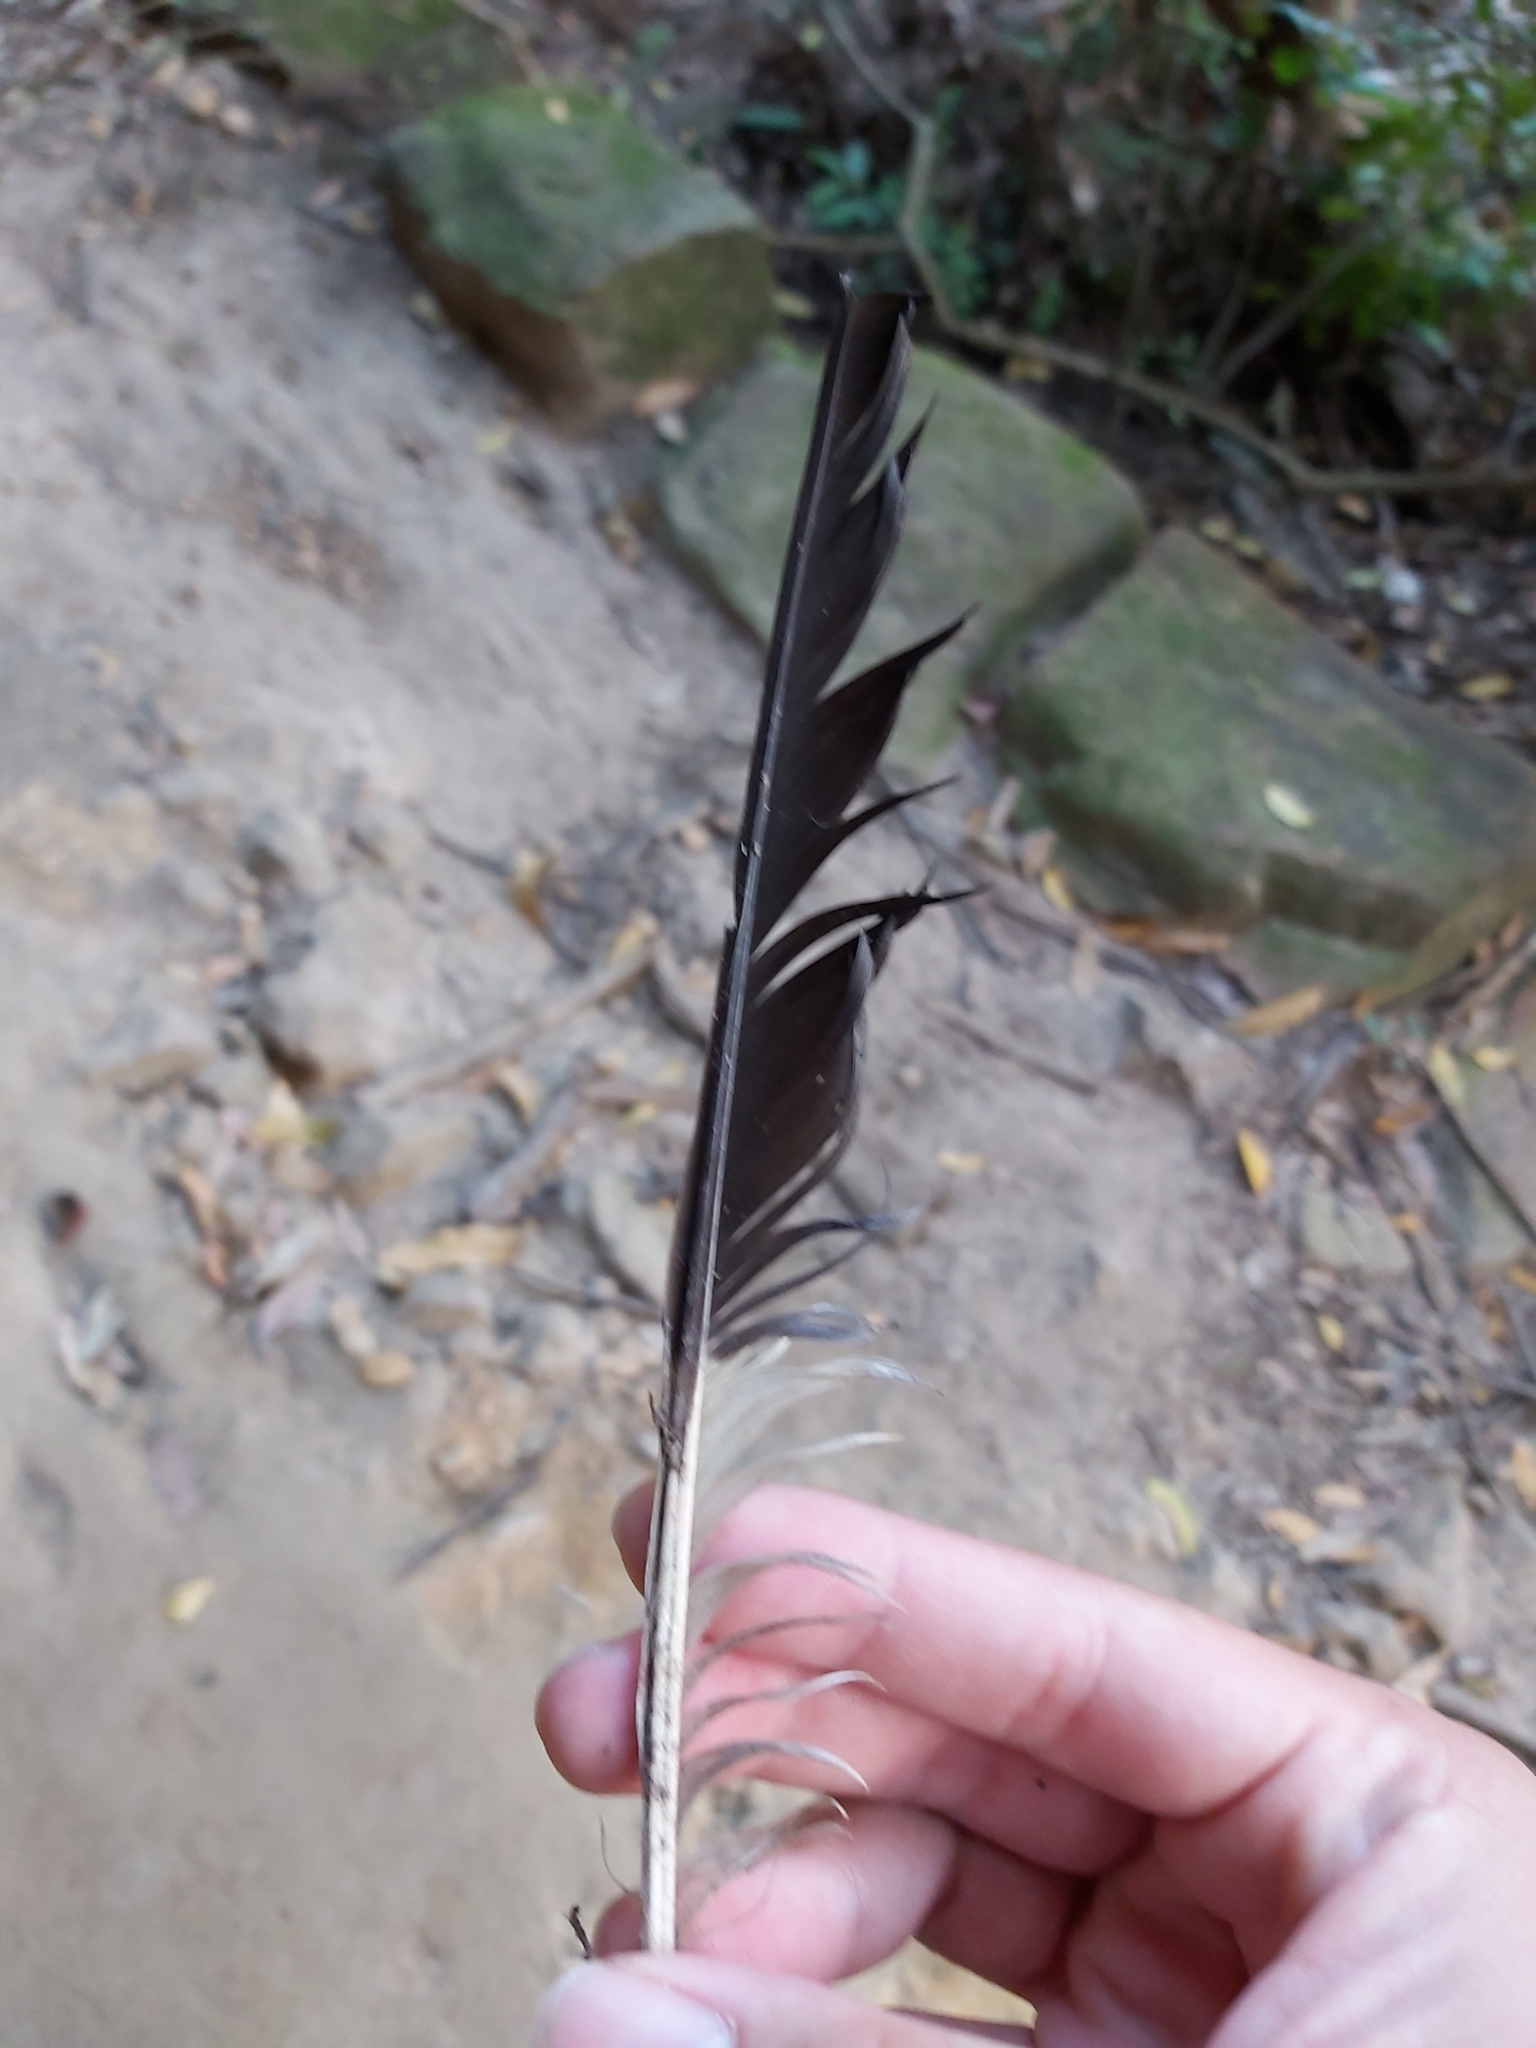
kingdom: Animalia
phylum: Chordata
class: Aves
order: Passeriformes
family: Cracticidae
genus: Strepera
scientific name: Strepera graculina
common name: Pied currawong
